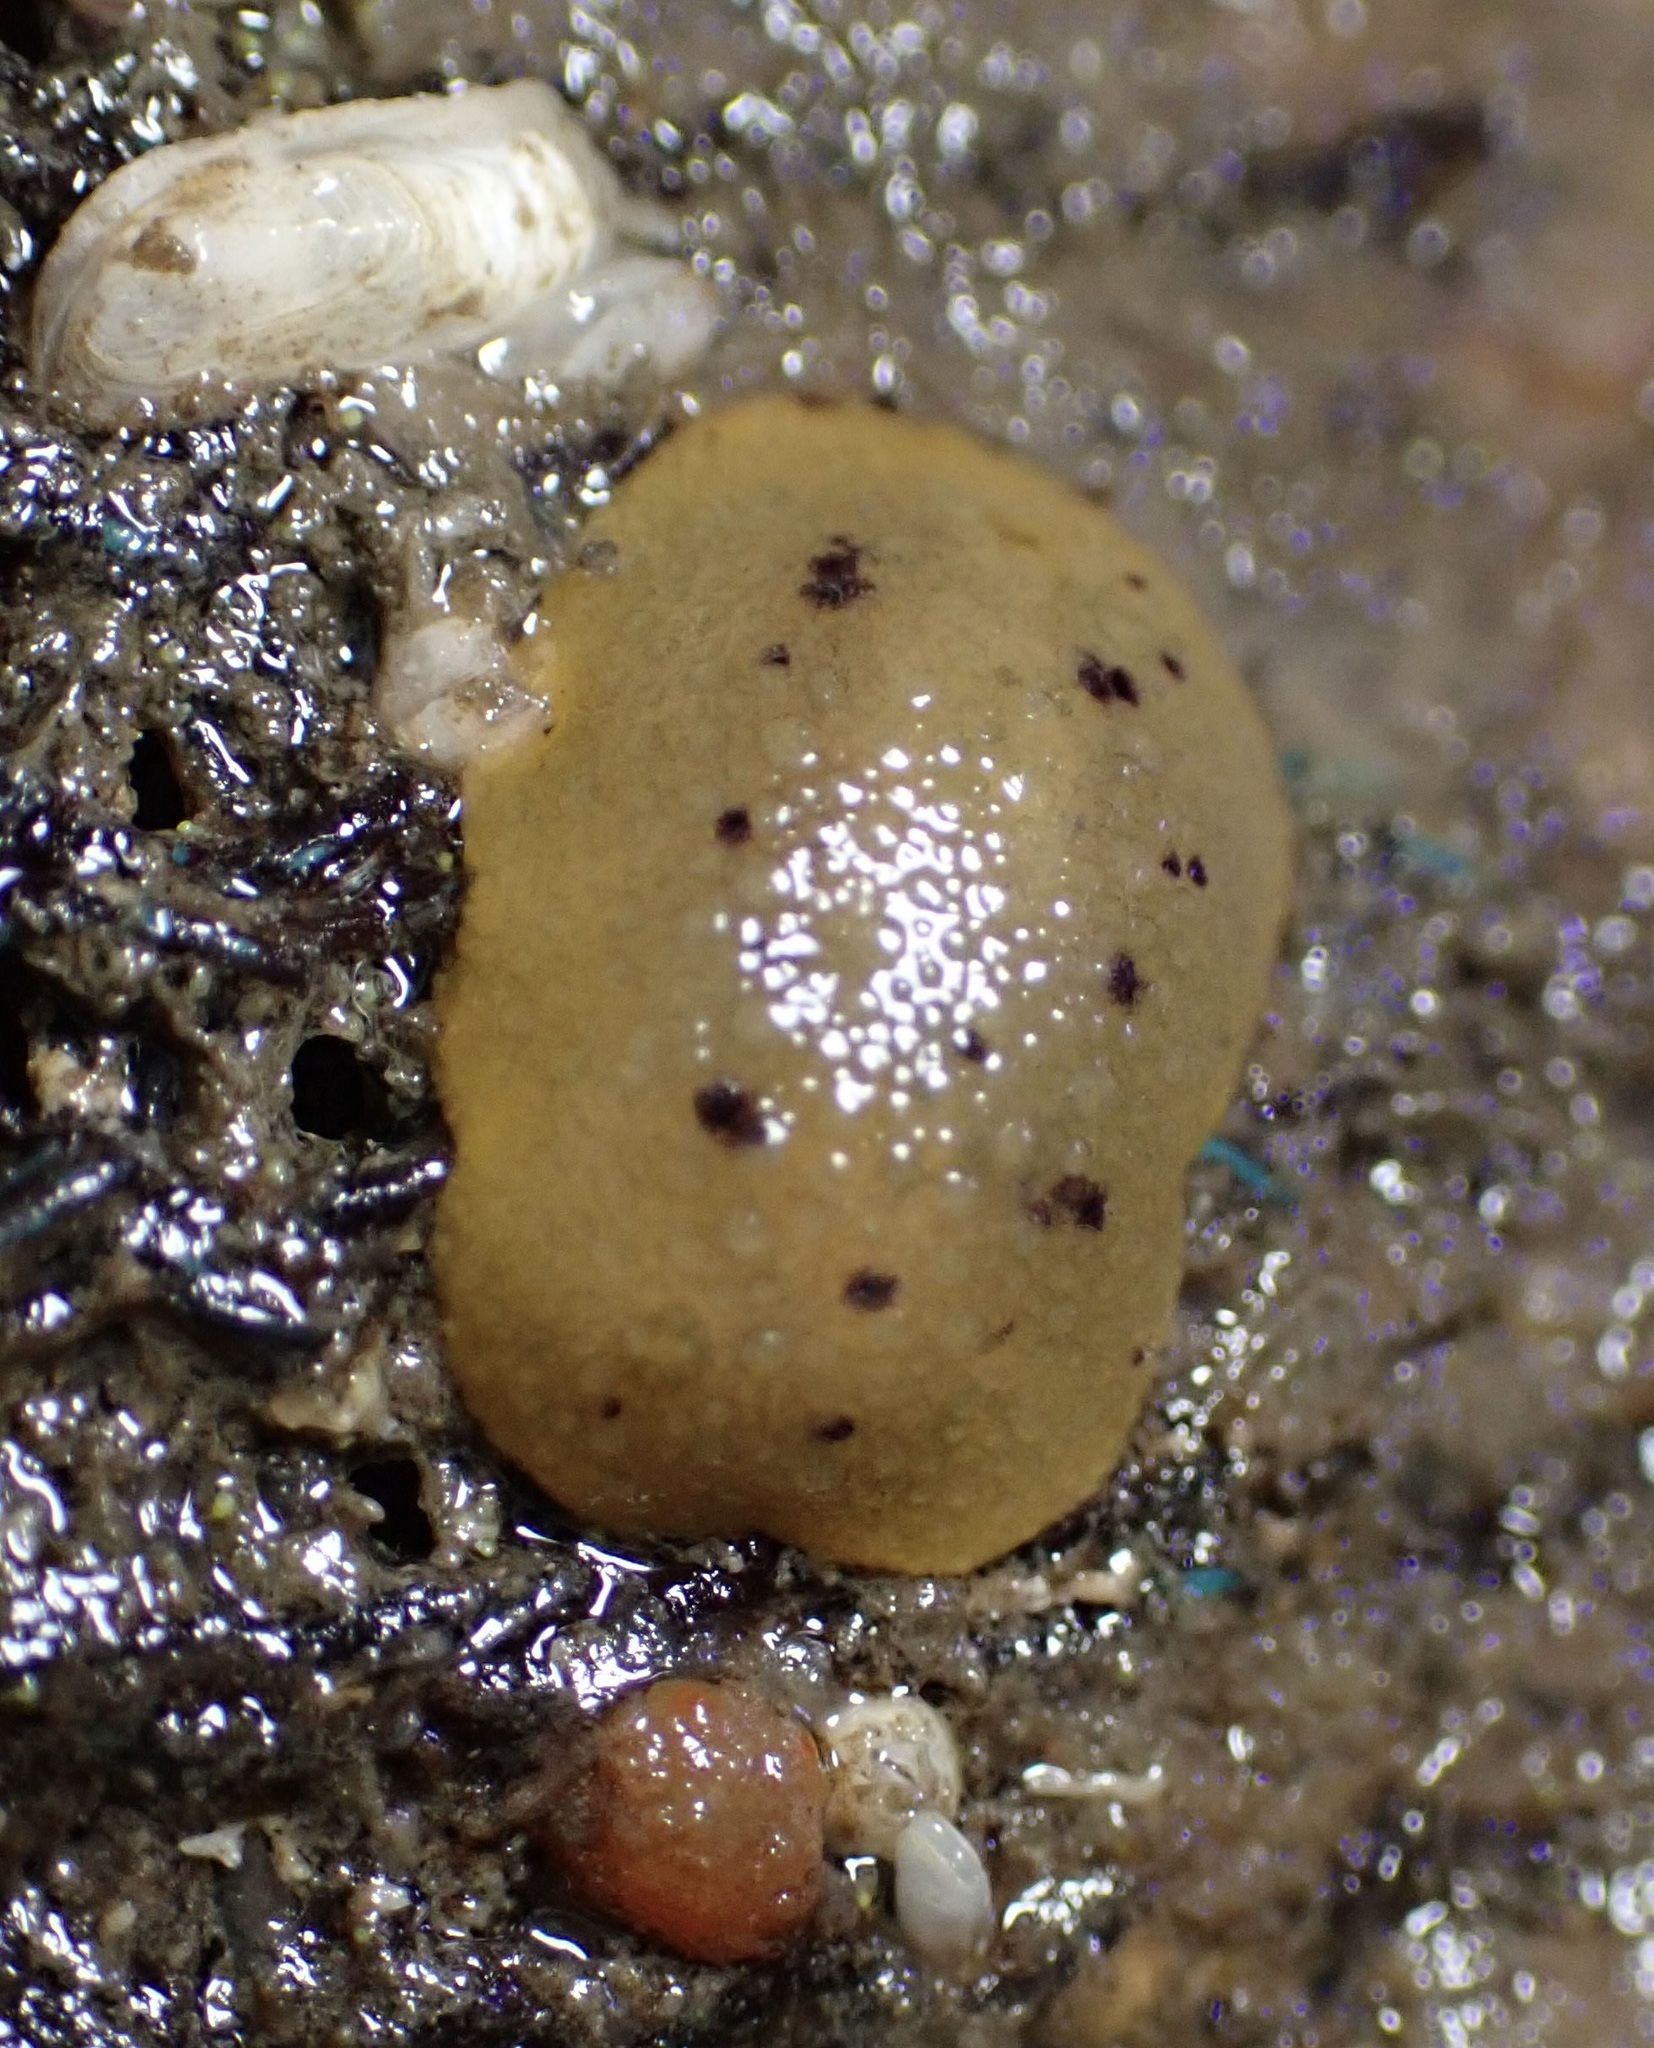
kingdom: Animalia
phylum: Mollusca
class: Gastropoda
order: Nudibranchia
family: Dorididae
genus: Doris
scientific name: Doris montereyensis
